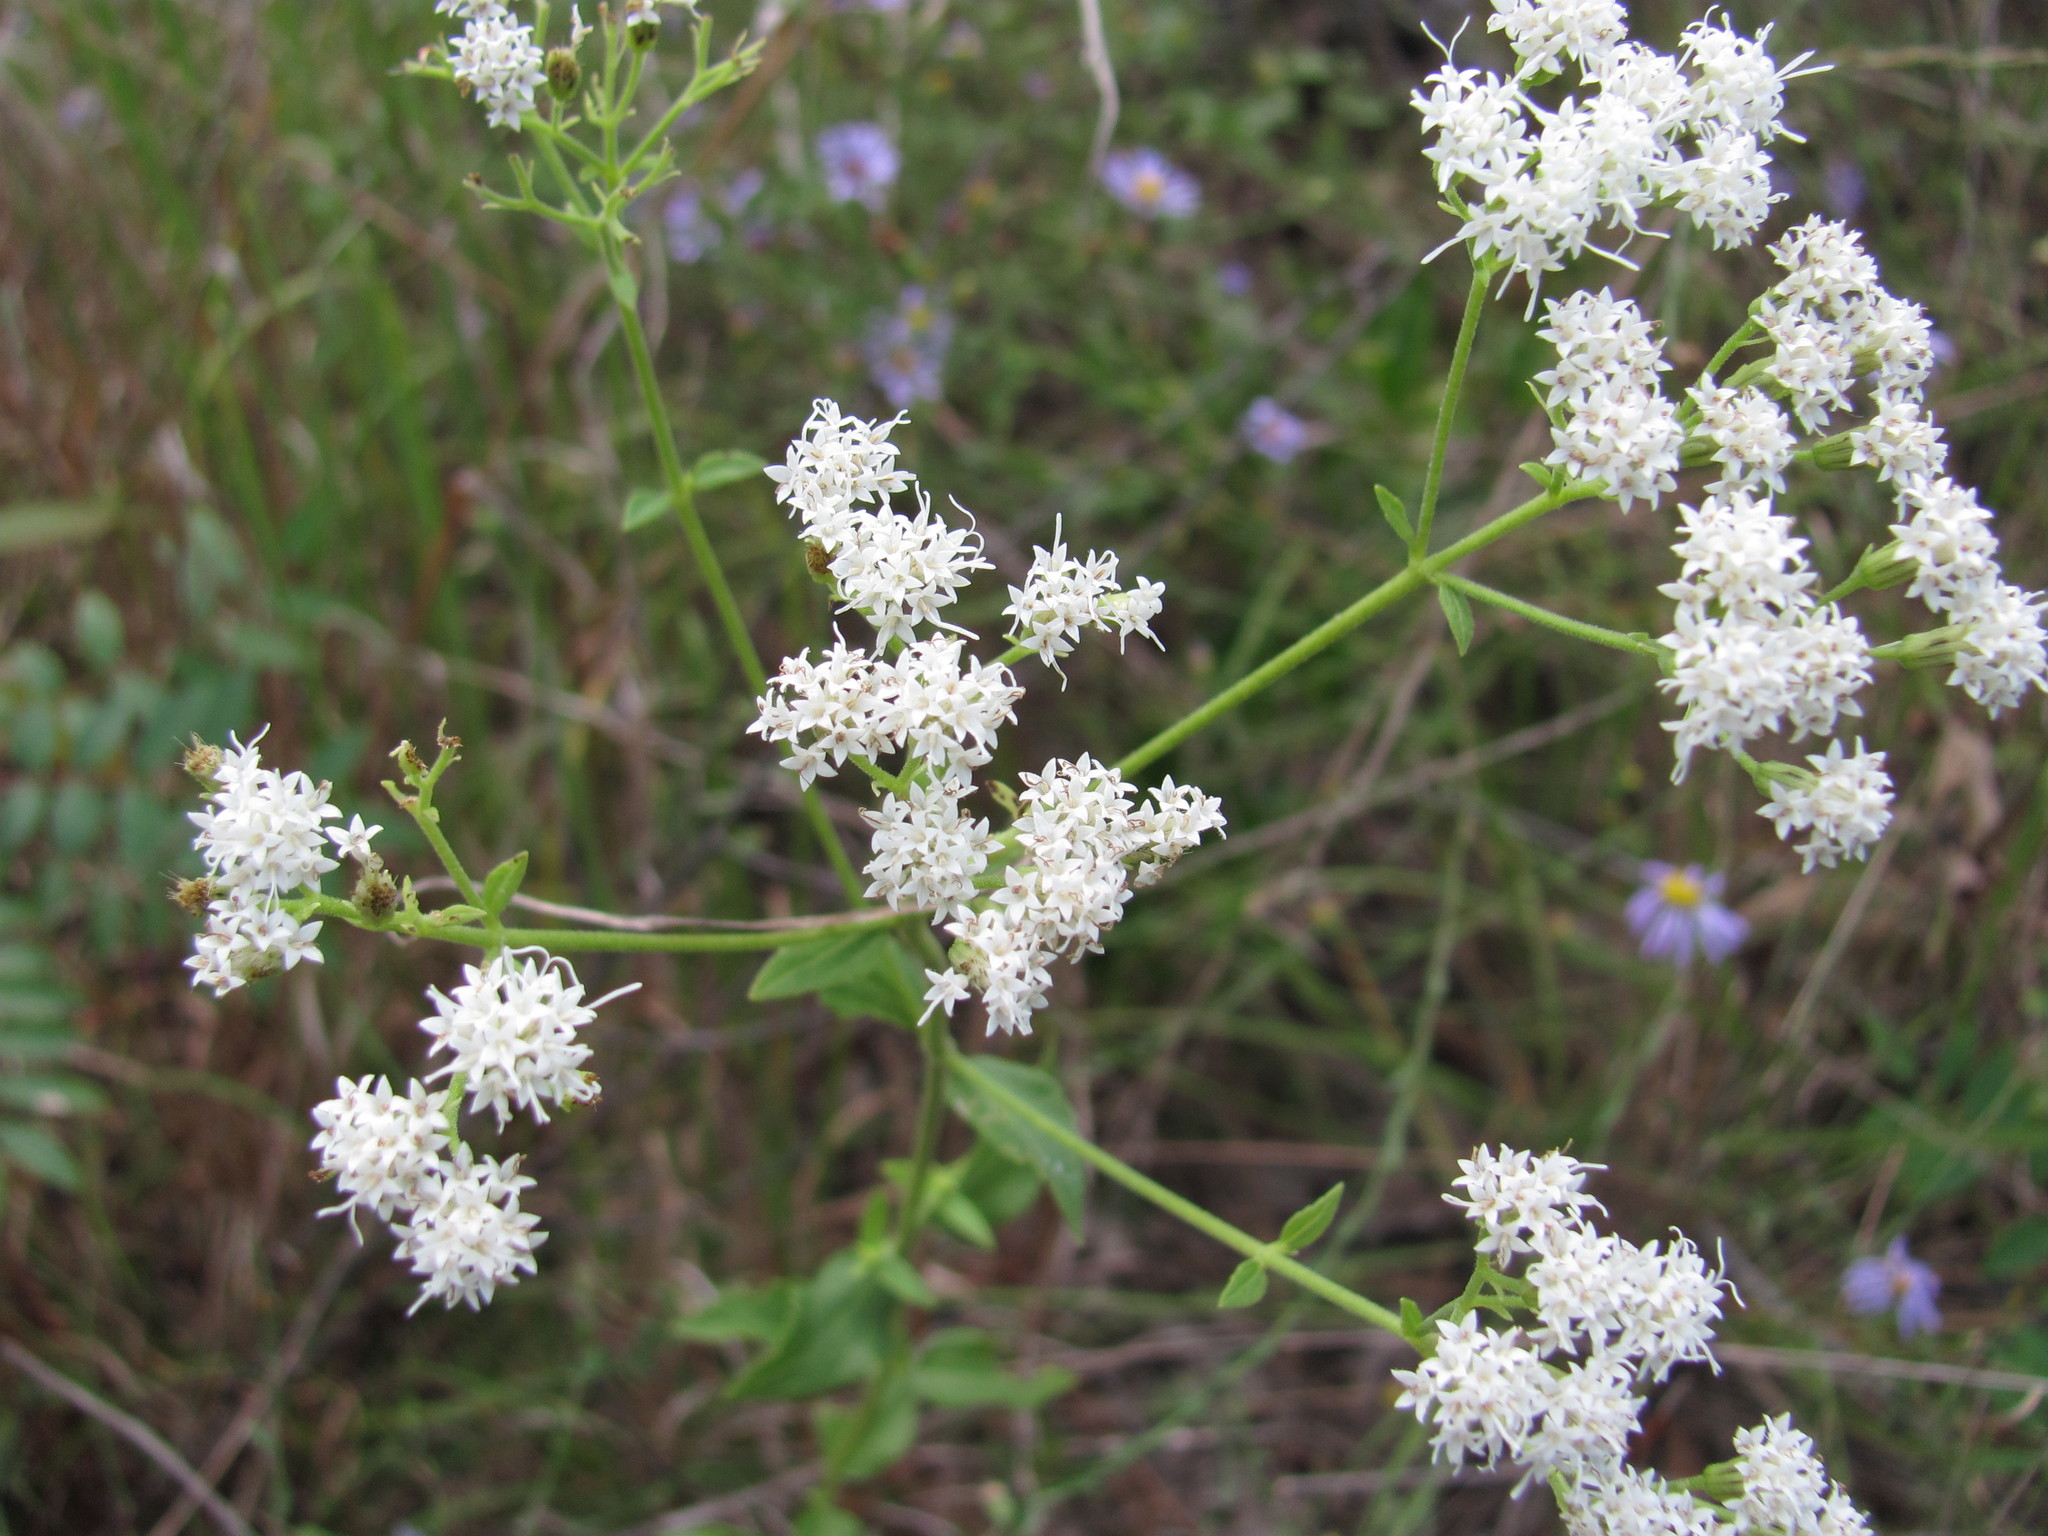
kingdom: Plantae
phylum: Tracheophyta
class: Magnoliopsida
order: Asterales
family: Asteraceae
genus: Ageratina
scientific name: Ageratina aromatica
